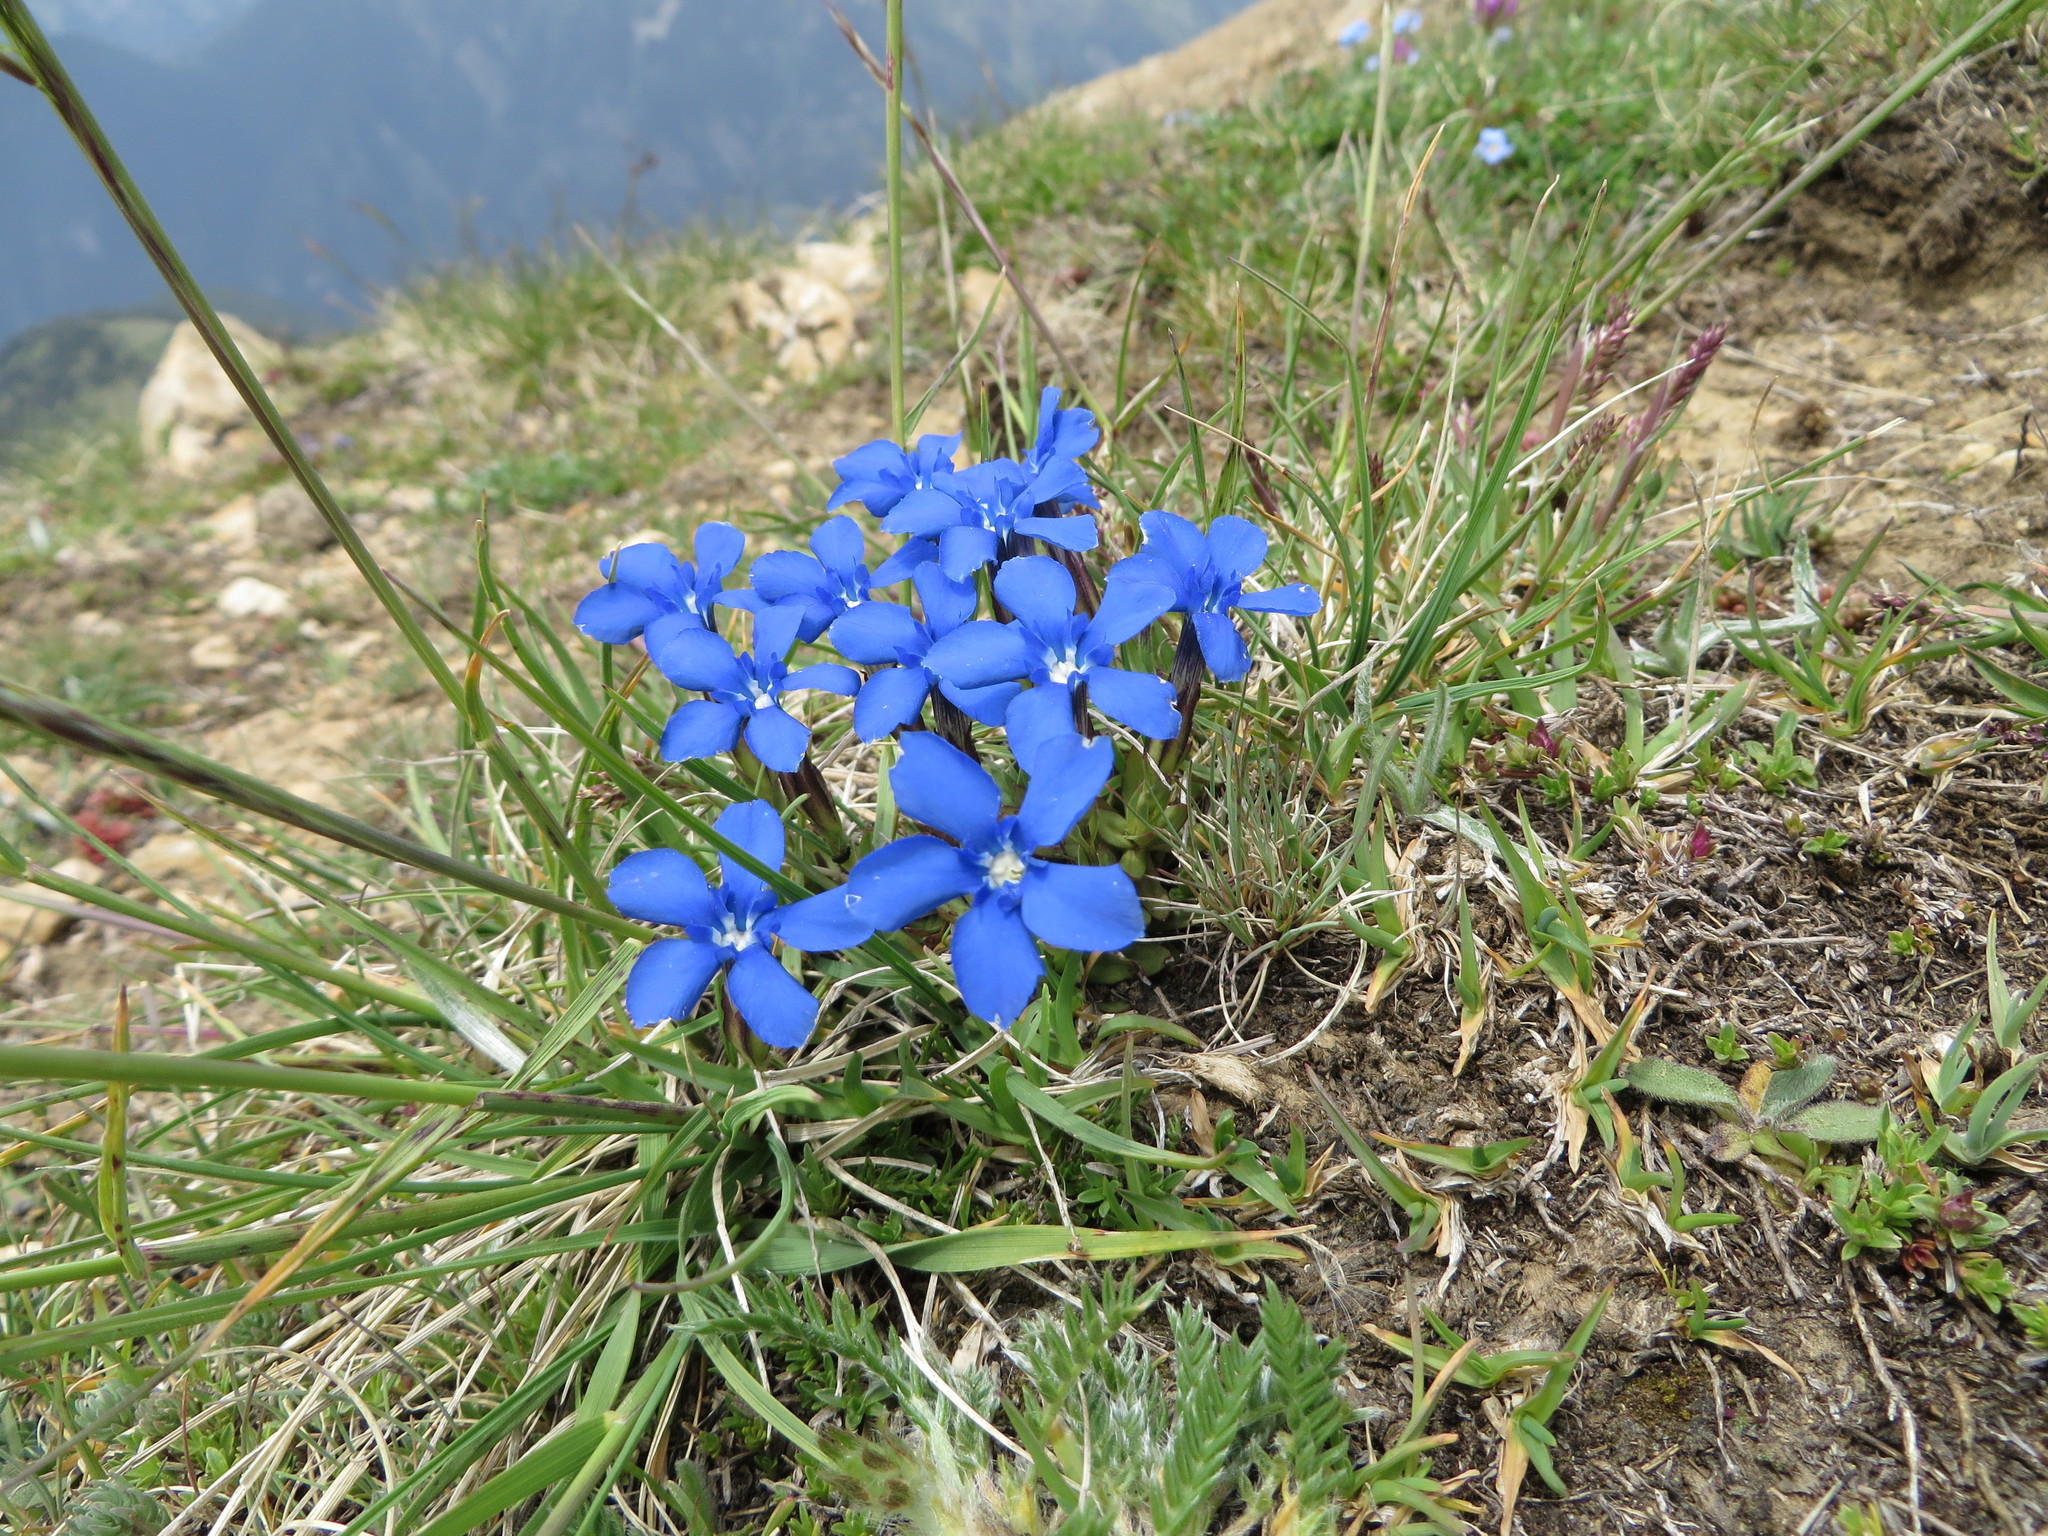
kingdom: Plantae
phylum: Tracheophyta
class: Magnoliopsida
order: Gentianales
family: Gentianaceae
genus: Gentiana
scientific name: Gentiana verna
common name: Spring gentian
